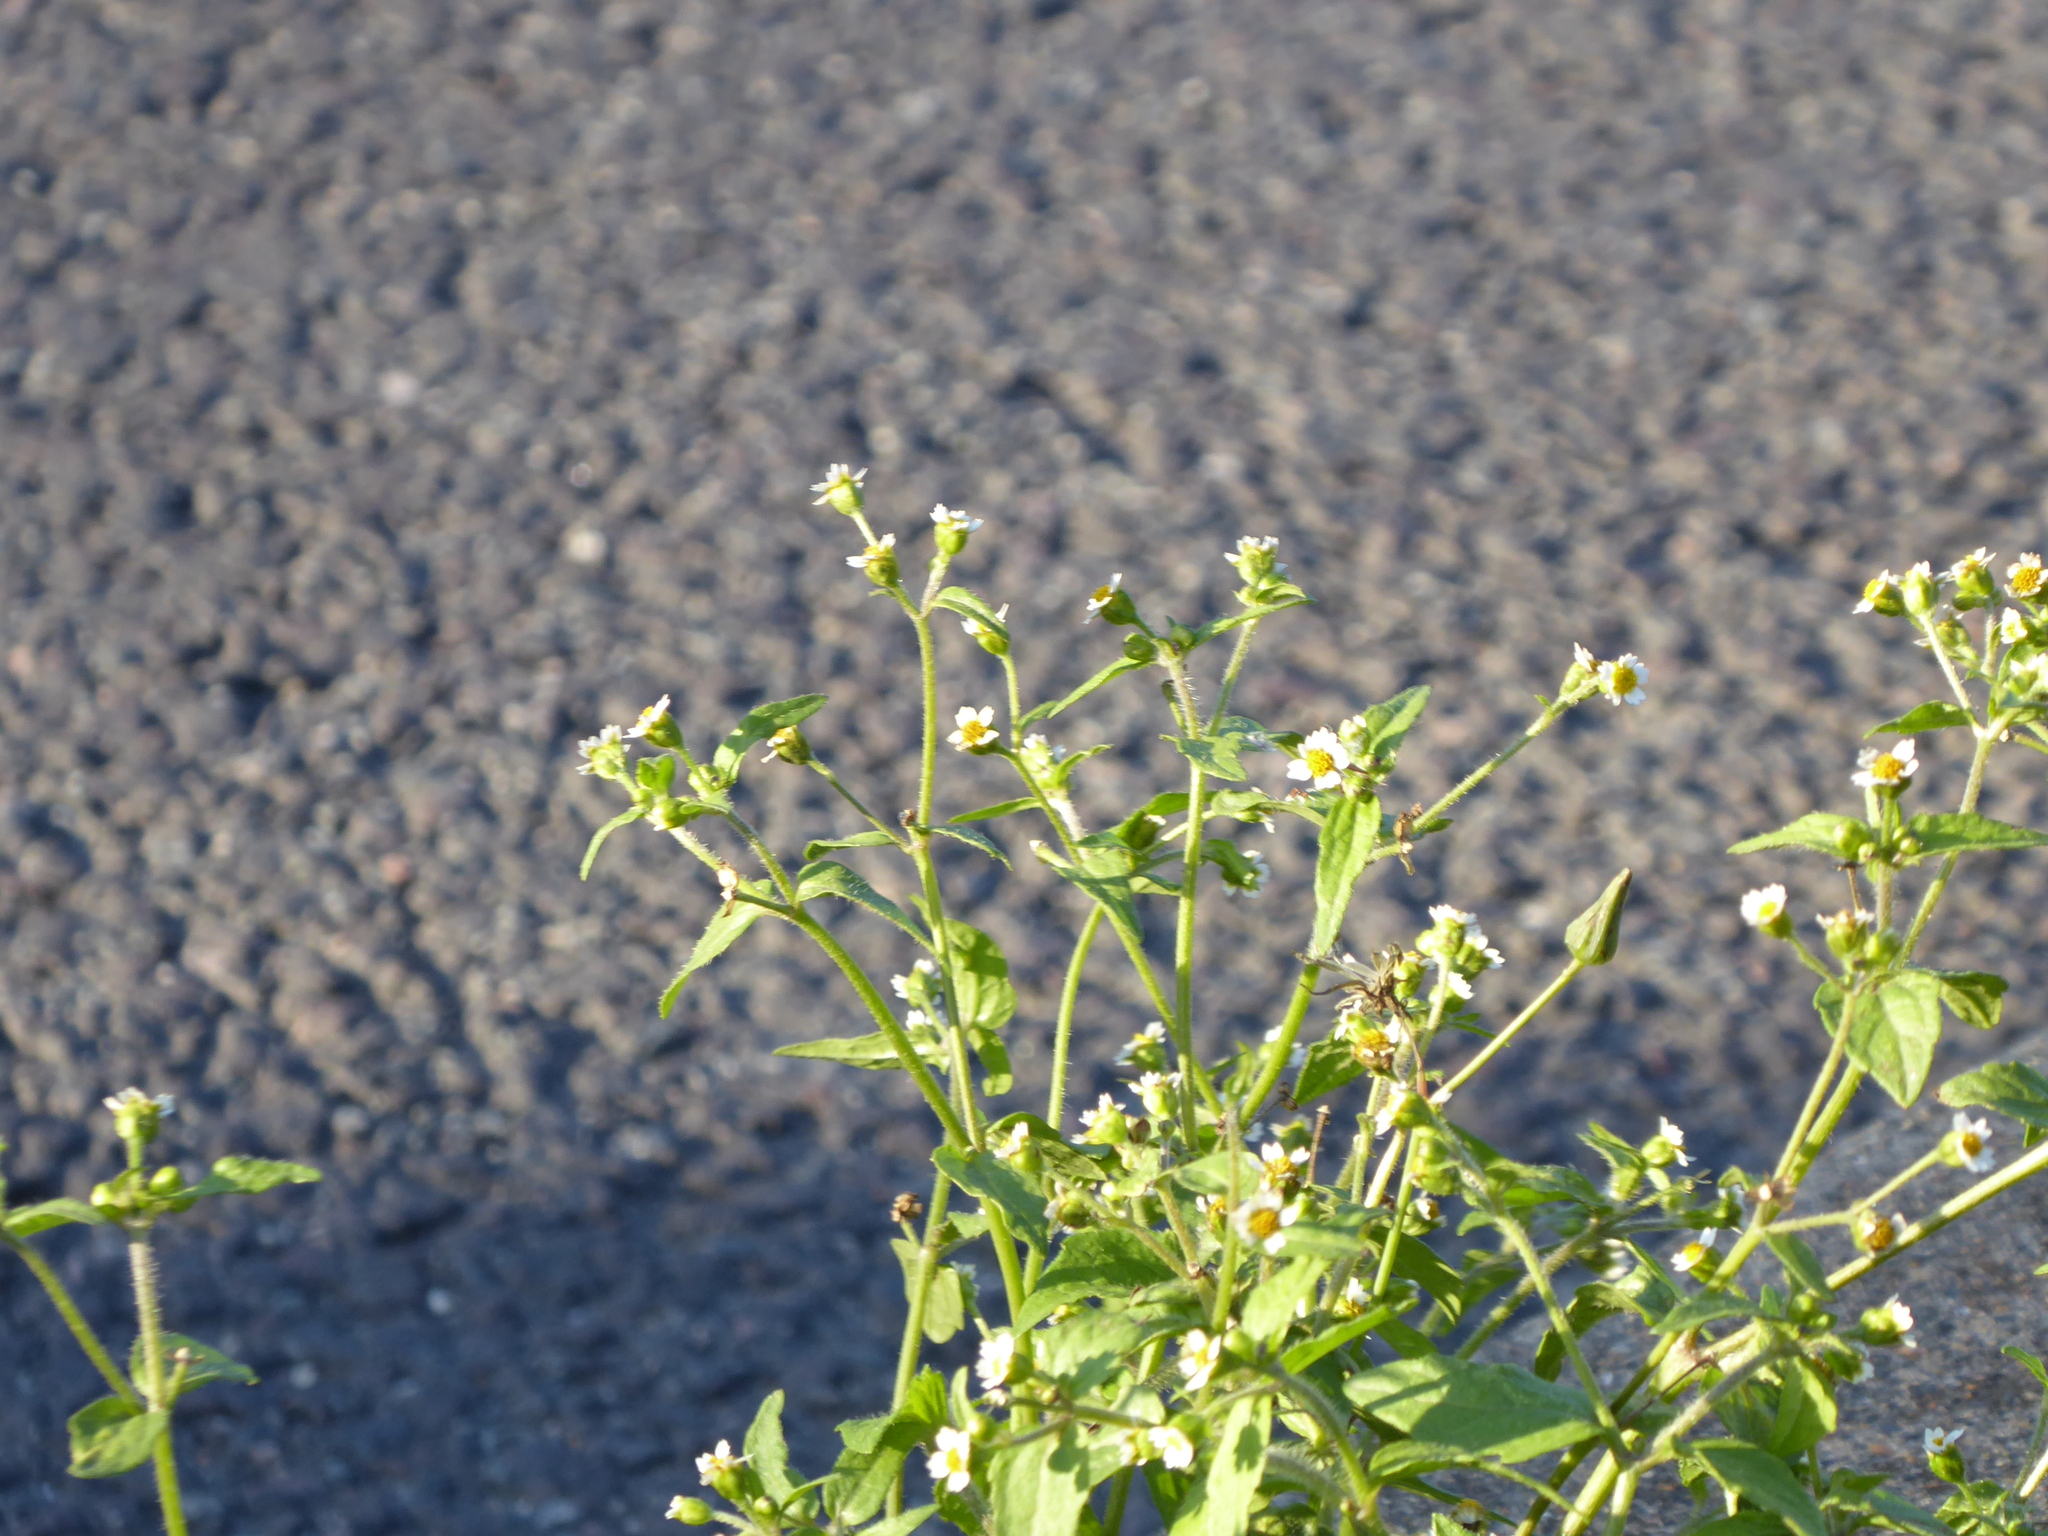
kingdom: Plantae
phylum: Tracheophyta
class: Magnoliopsida
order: Asterales
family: Asteraceae
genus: Galinsoga
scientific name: Galinsoga quadriradiata
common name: Shaggy soldier
